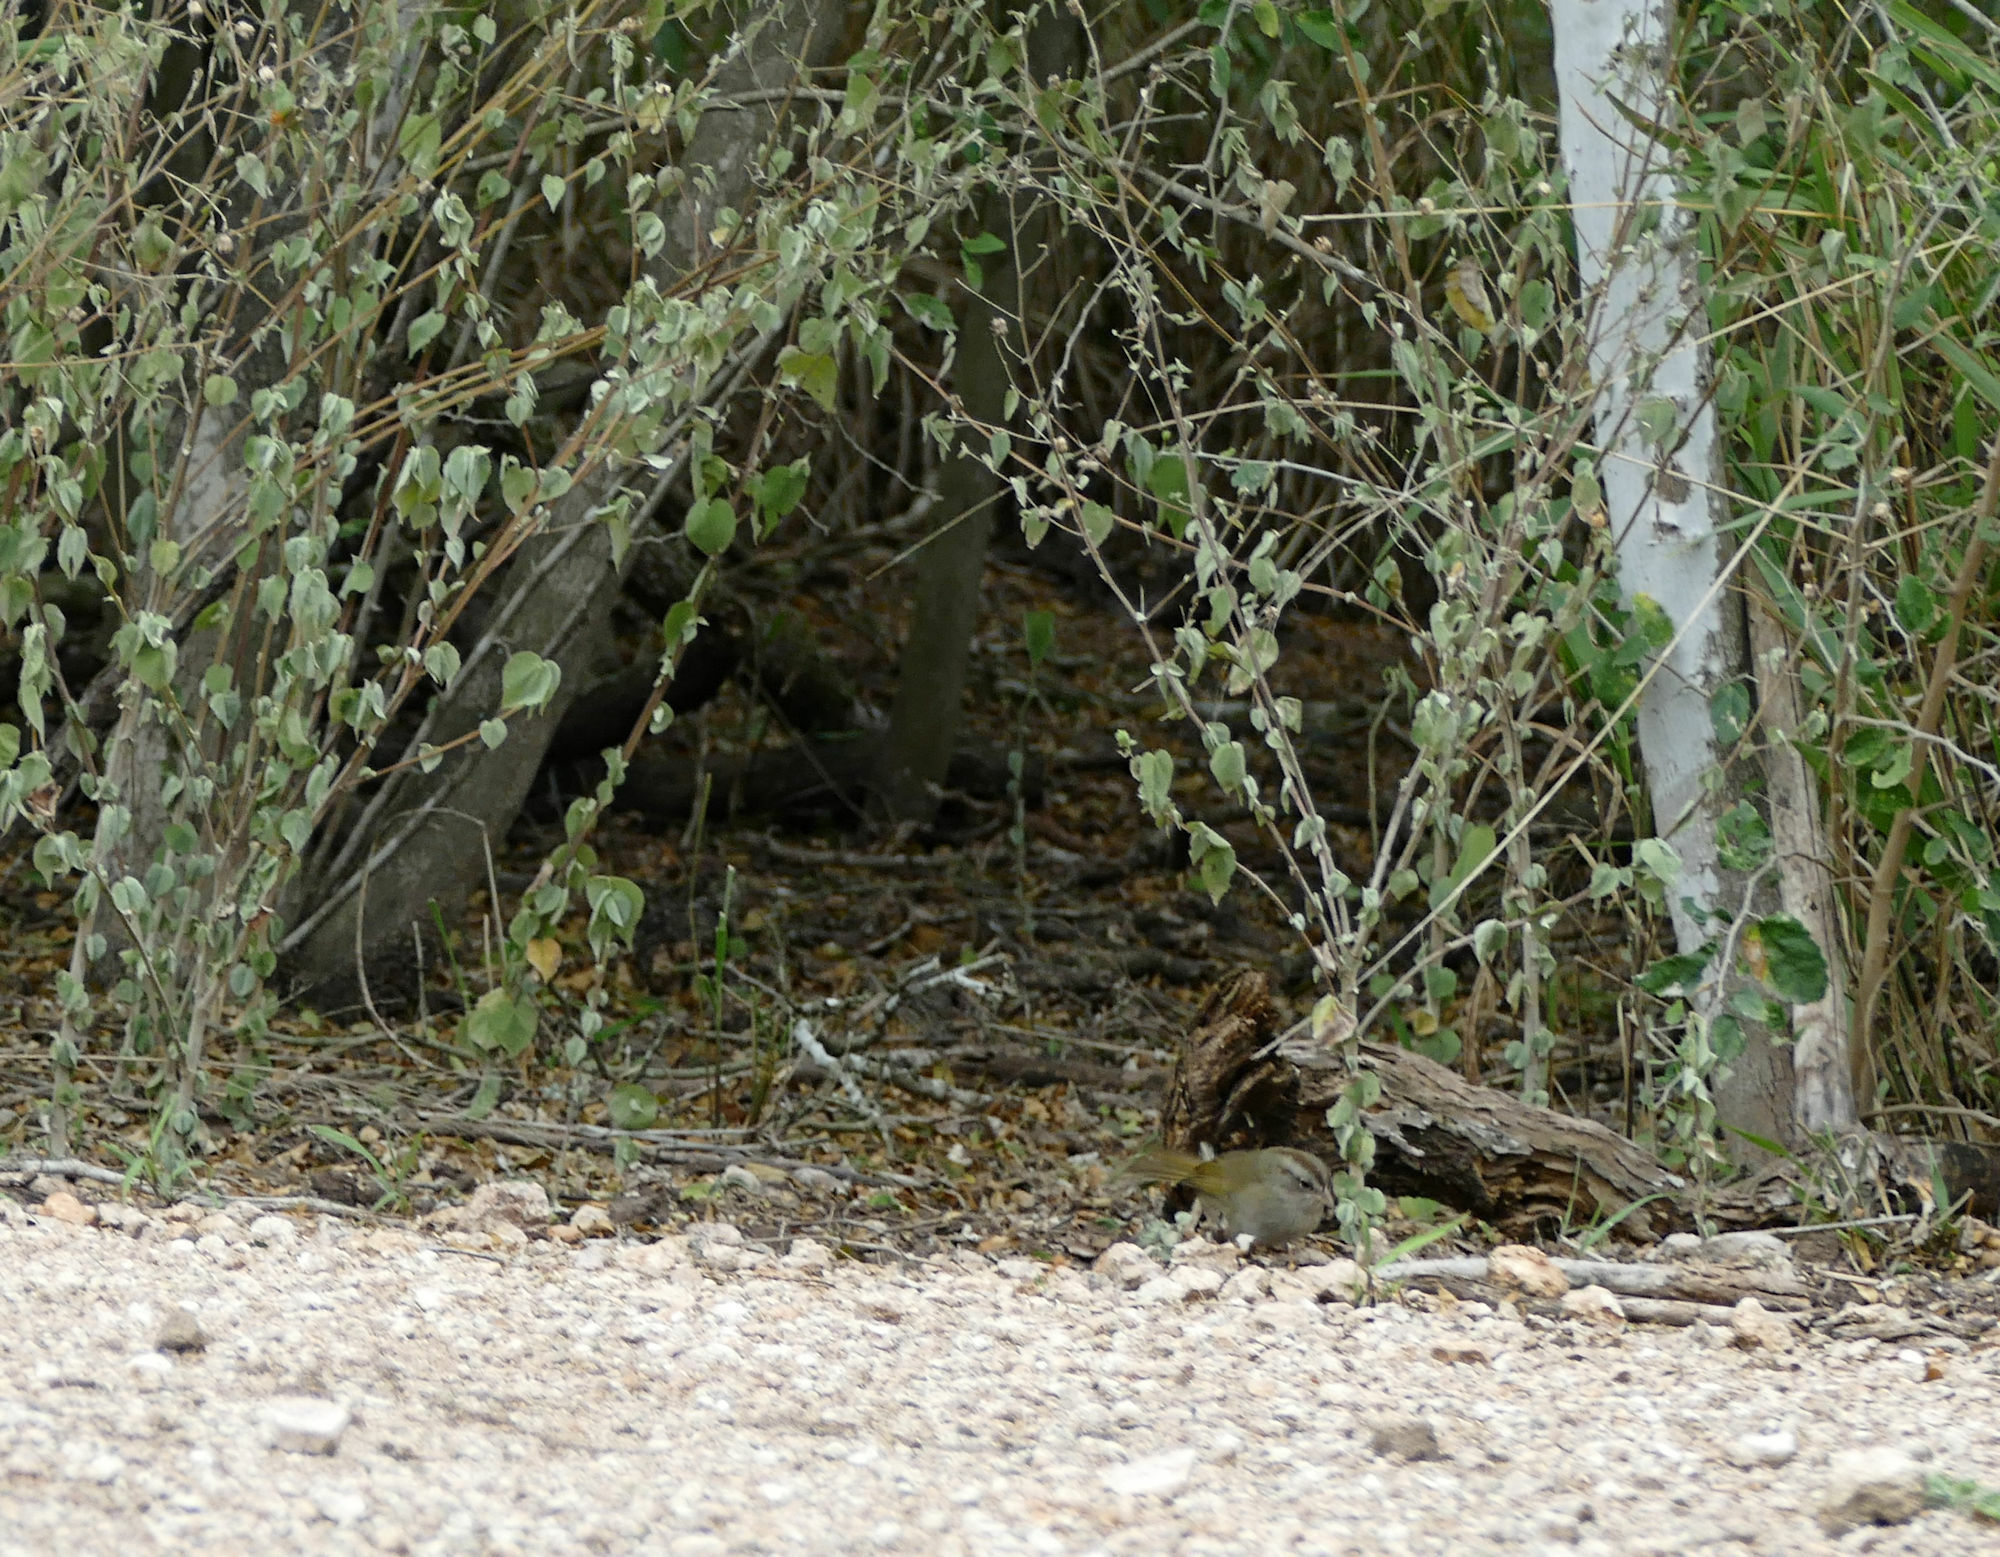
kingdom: Animalia
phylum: Chordata
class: Aves
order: Passeriformes
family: Passerellidae
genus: Arremonops
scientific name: Arremonops rufivirgatus
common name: Olive sparrow
